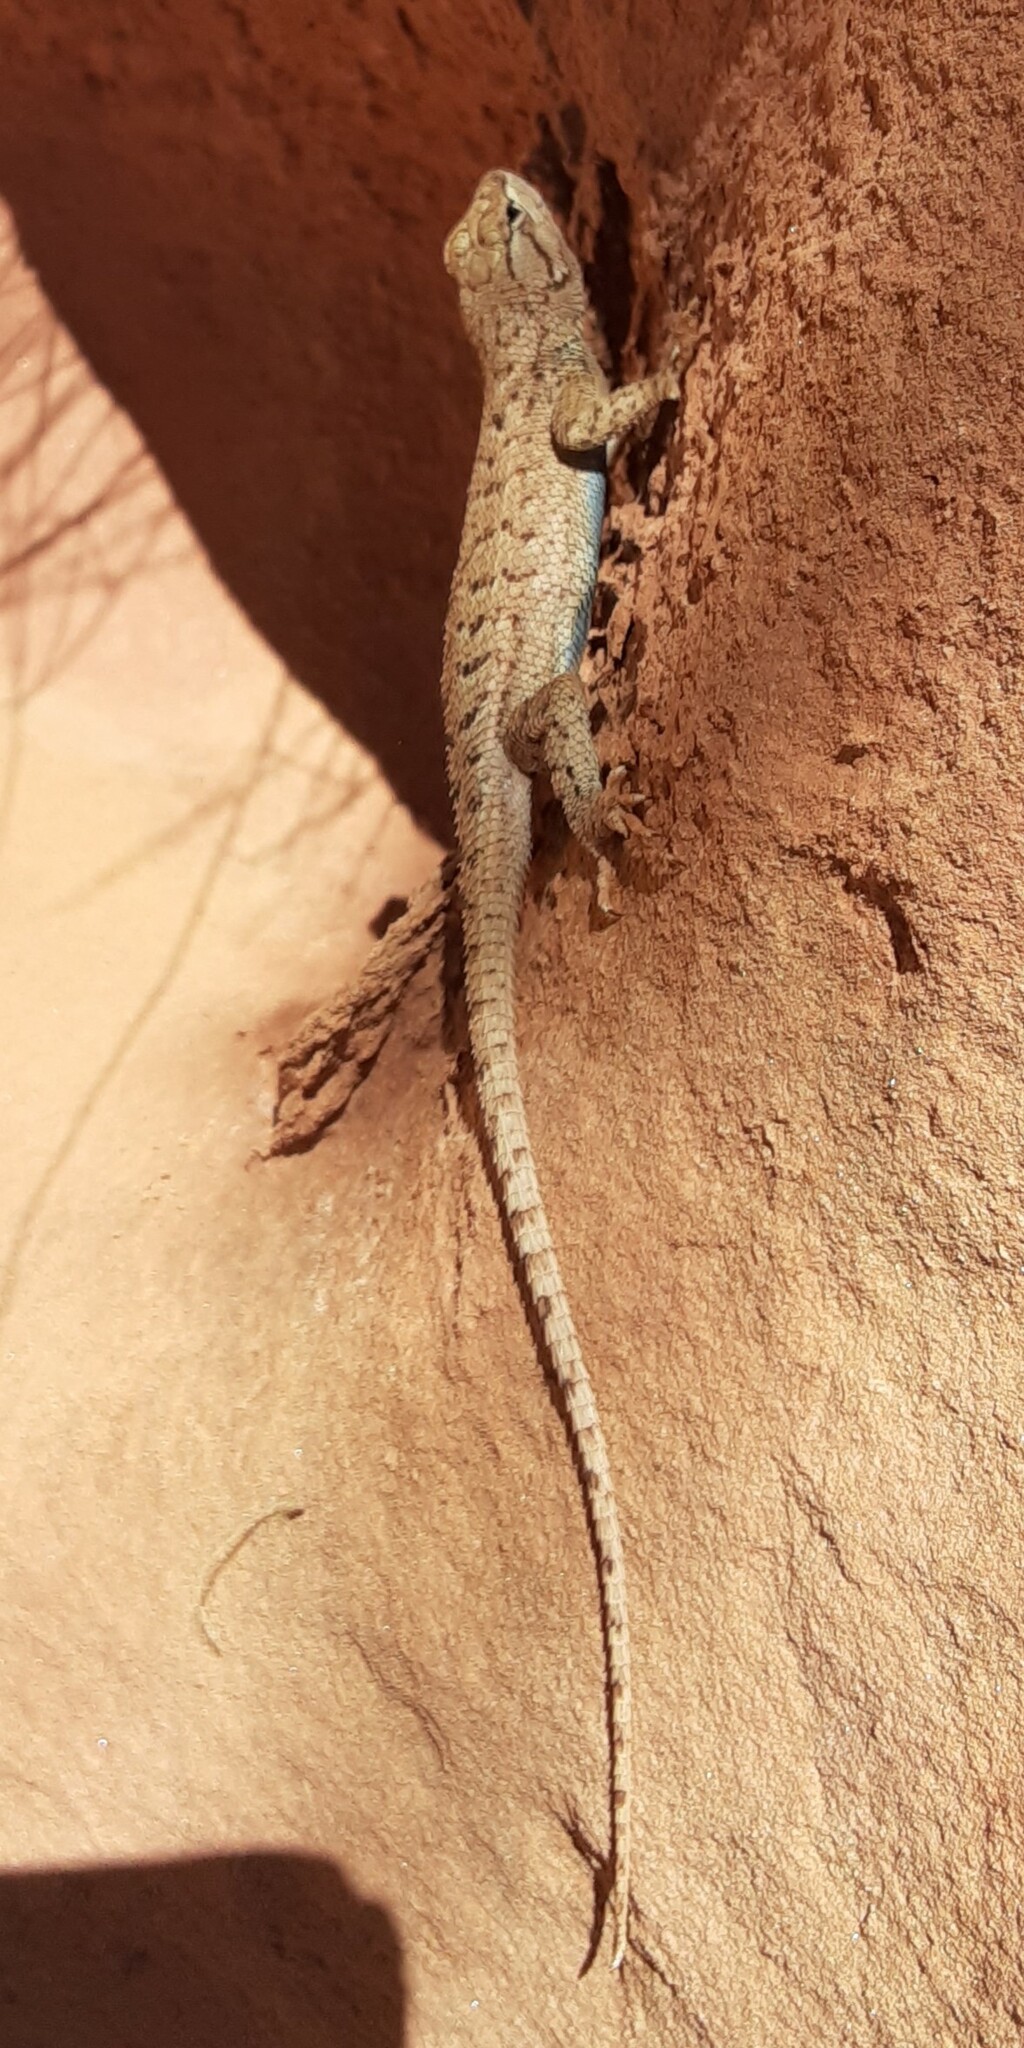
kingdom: Animalia
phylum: Chordata
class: Squamata
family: Phrynosomatidae
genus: Sceloporus
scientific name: Sceloporus tristichus
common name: Plateau fence lizard
